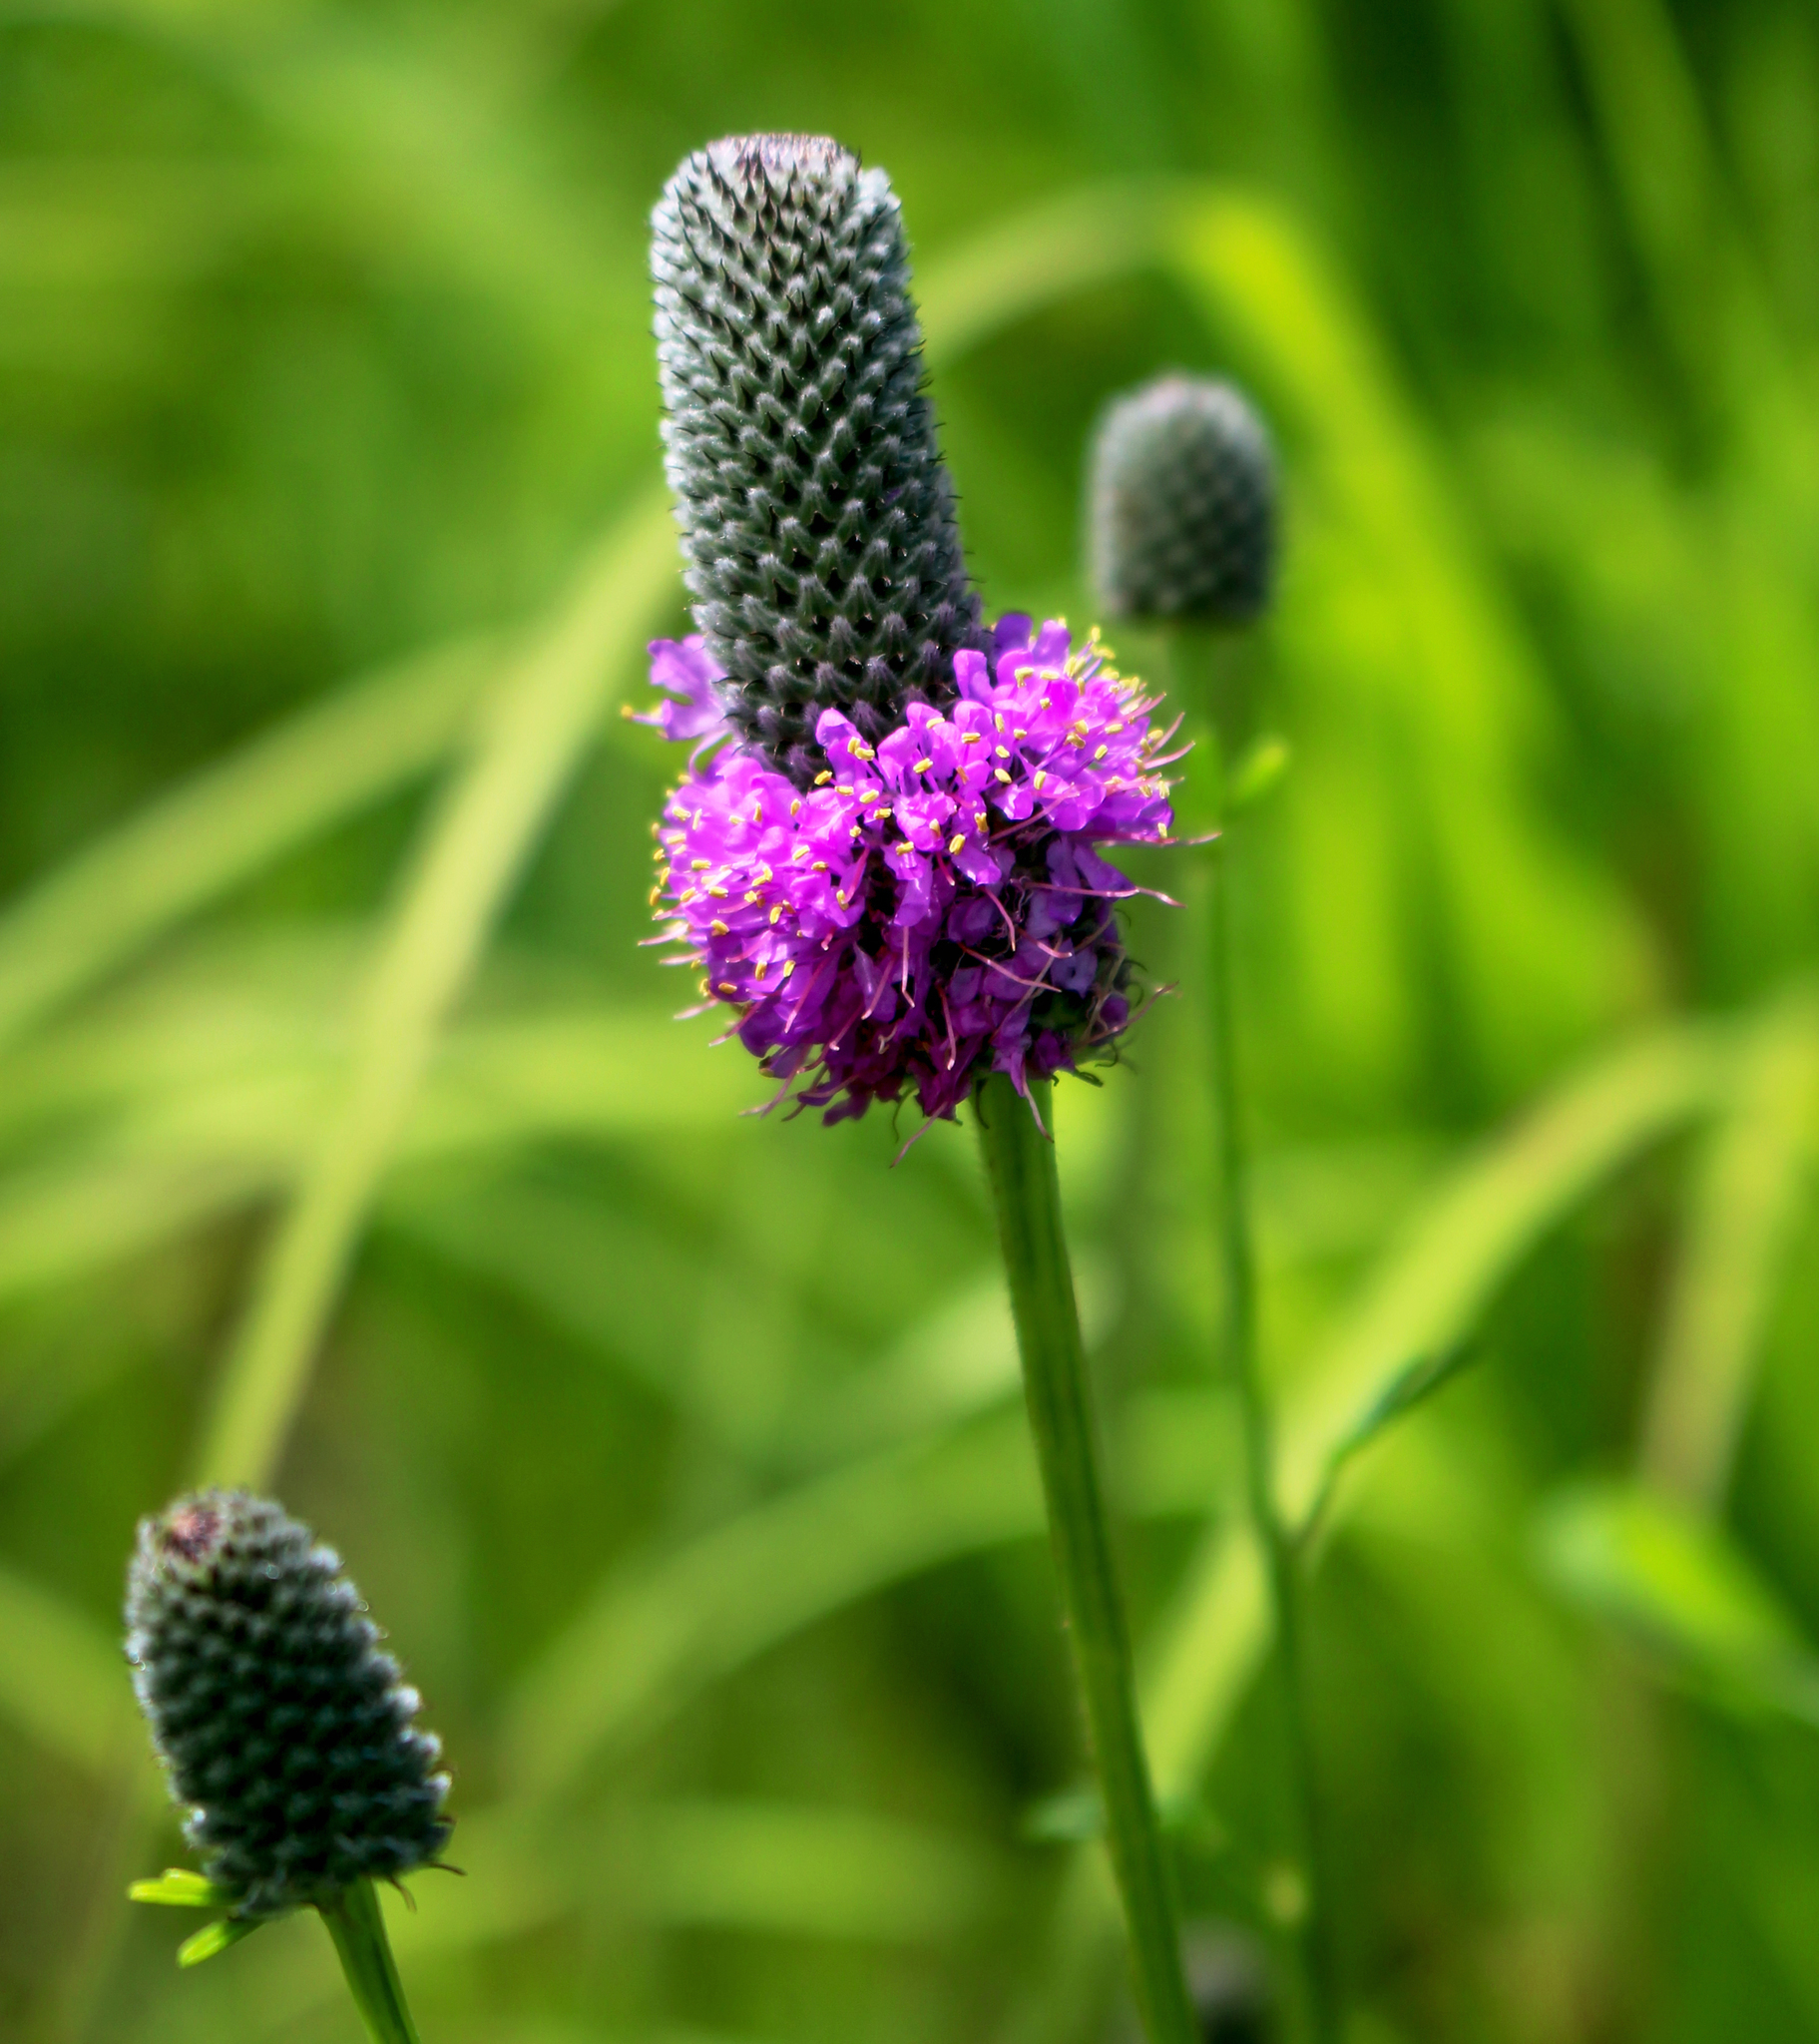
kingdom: Plantae
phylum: Tracheophyta
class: Magnoliopsida
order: Fabales
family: Fabaceae
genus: Dalea
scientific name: Dalea purpurea
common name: Purple prairie-clover
